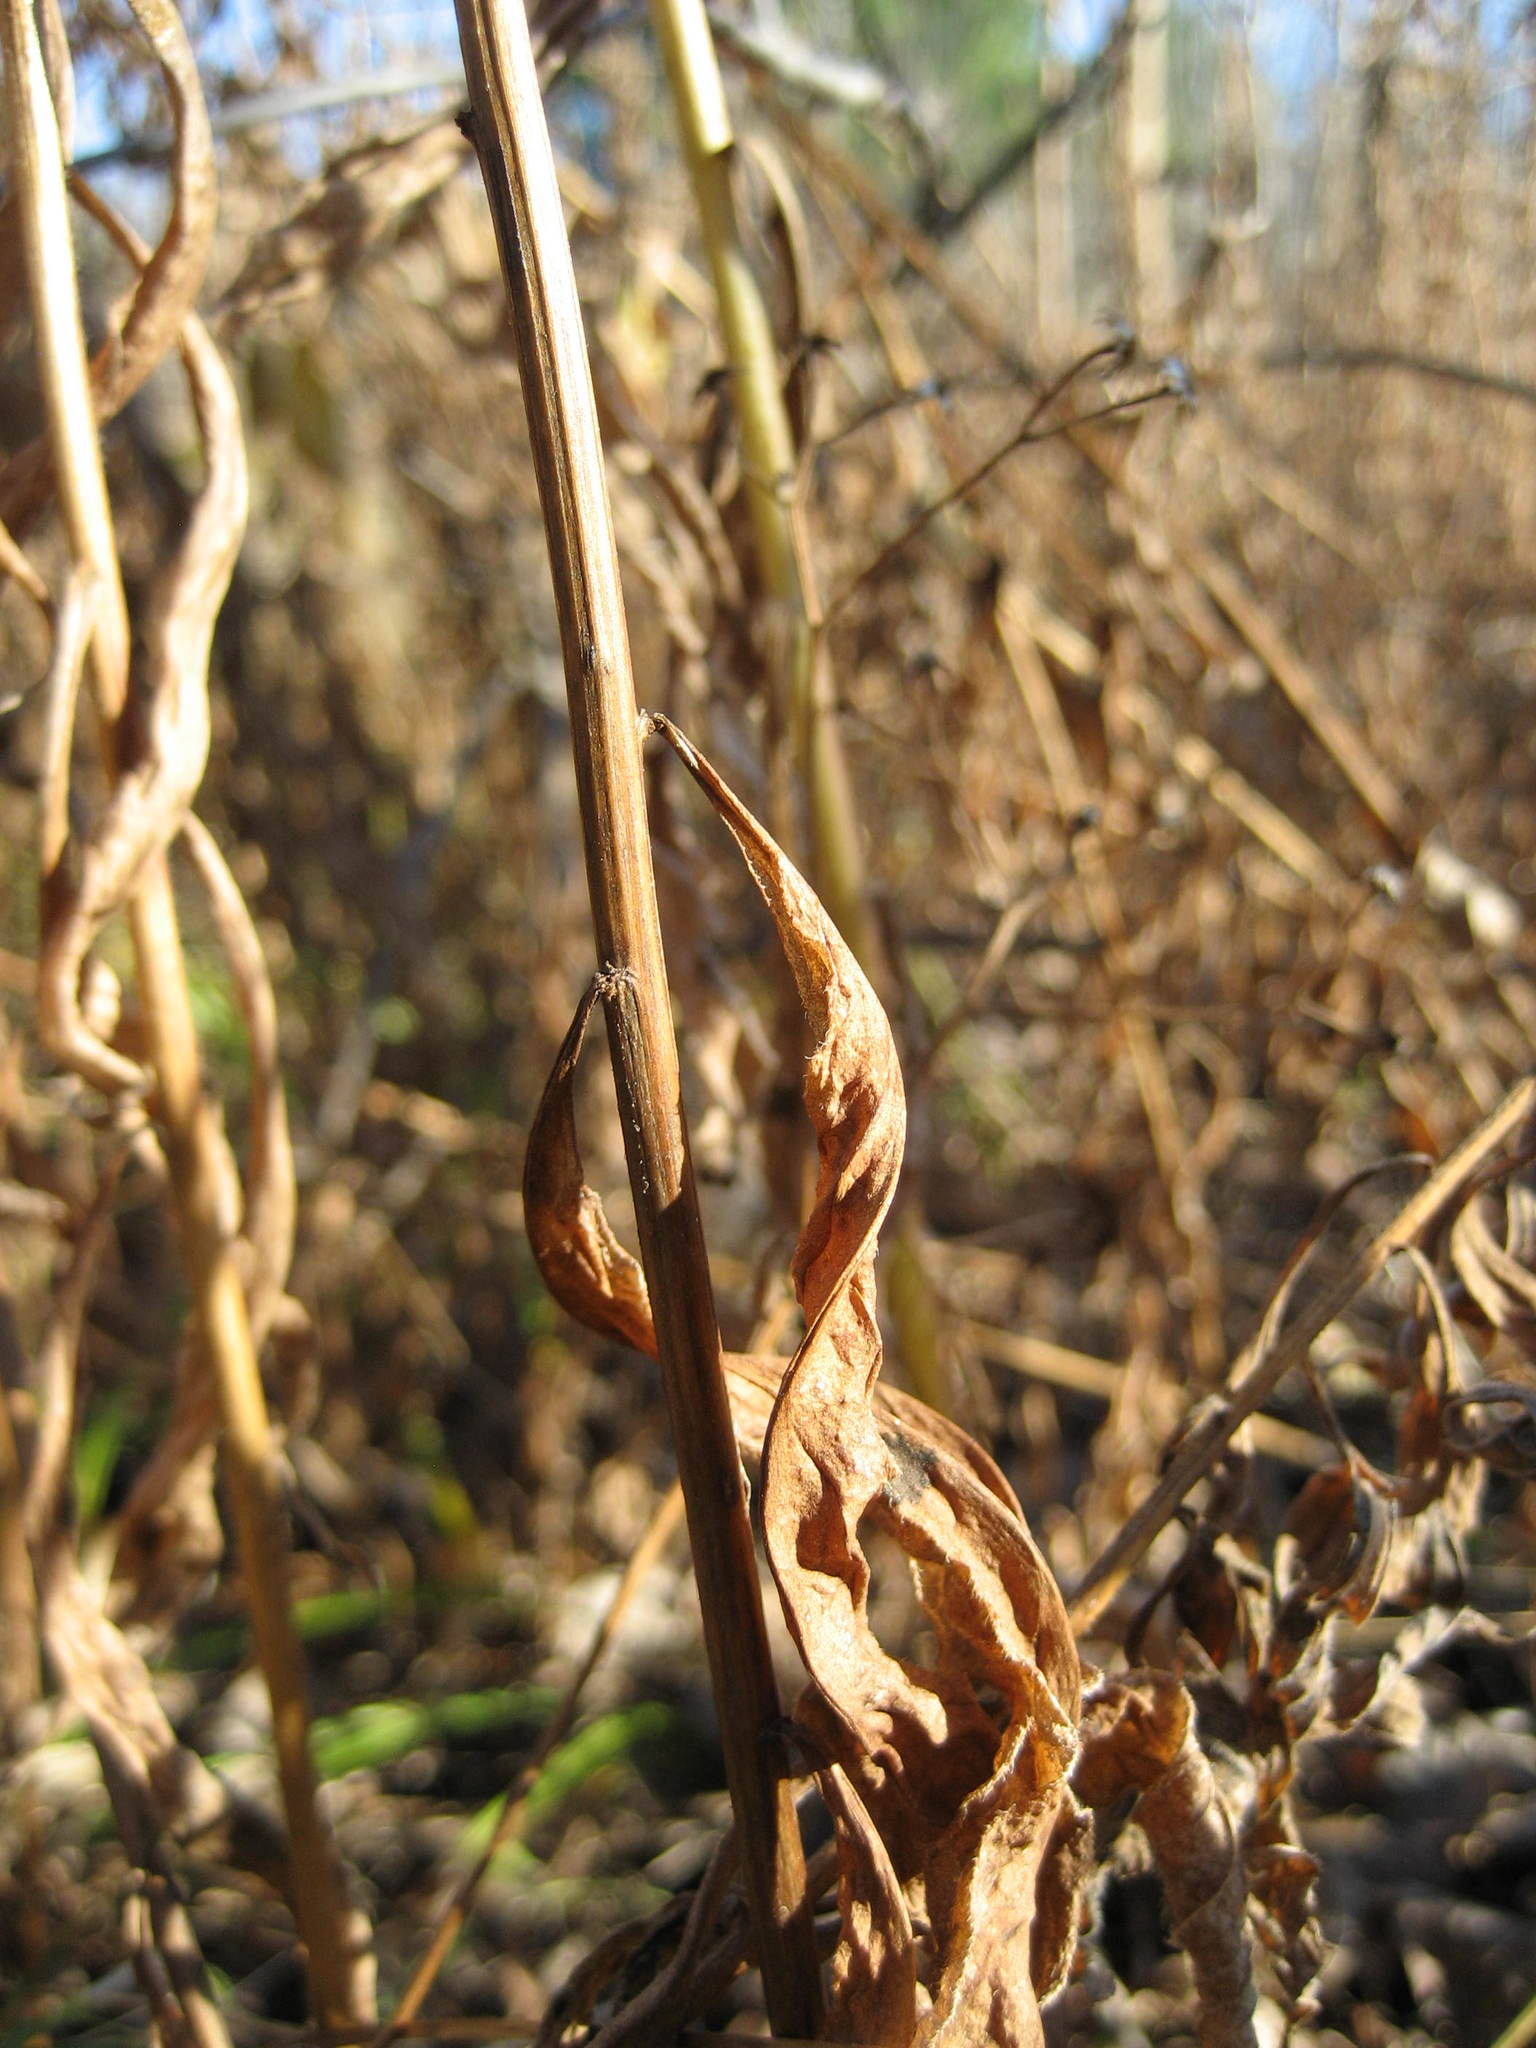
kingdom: Plantae
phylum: Tracheophyta
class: Magnoliopsida
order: Asterales
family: Asteraceae
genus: Doellingeria
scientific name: Doellingeria umbellata
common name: Flat-top white aster
